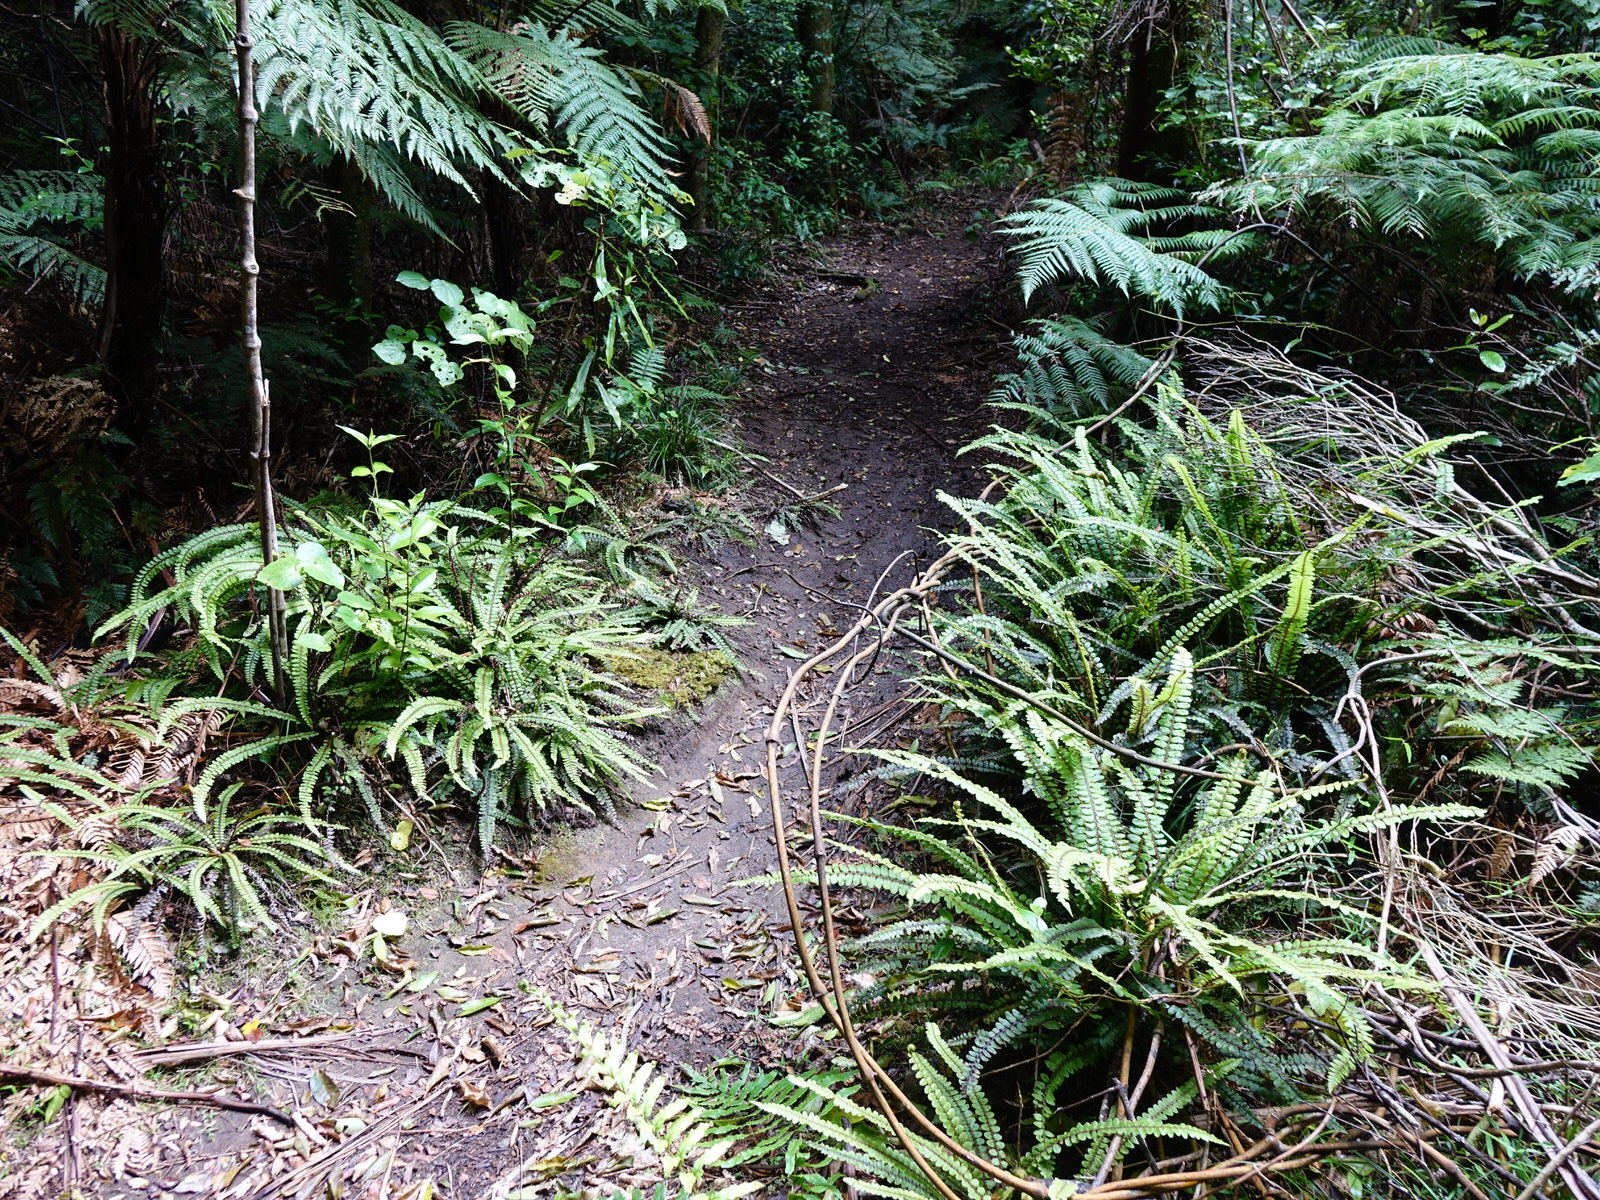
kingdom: Plantae
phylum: Tracheophyta
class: Polypodiopsida
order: Polypodiales
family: Blechnaceae
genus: Cranfillia
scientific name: Cranfillia fluviatilis
